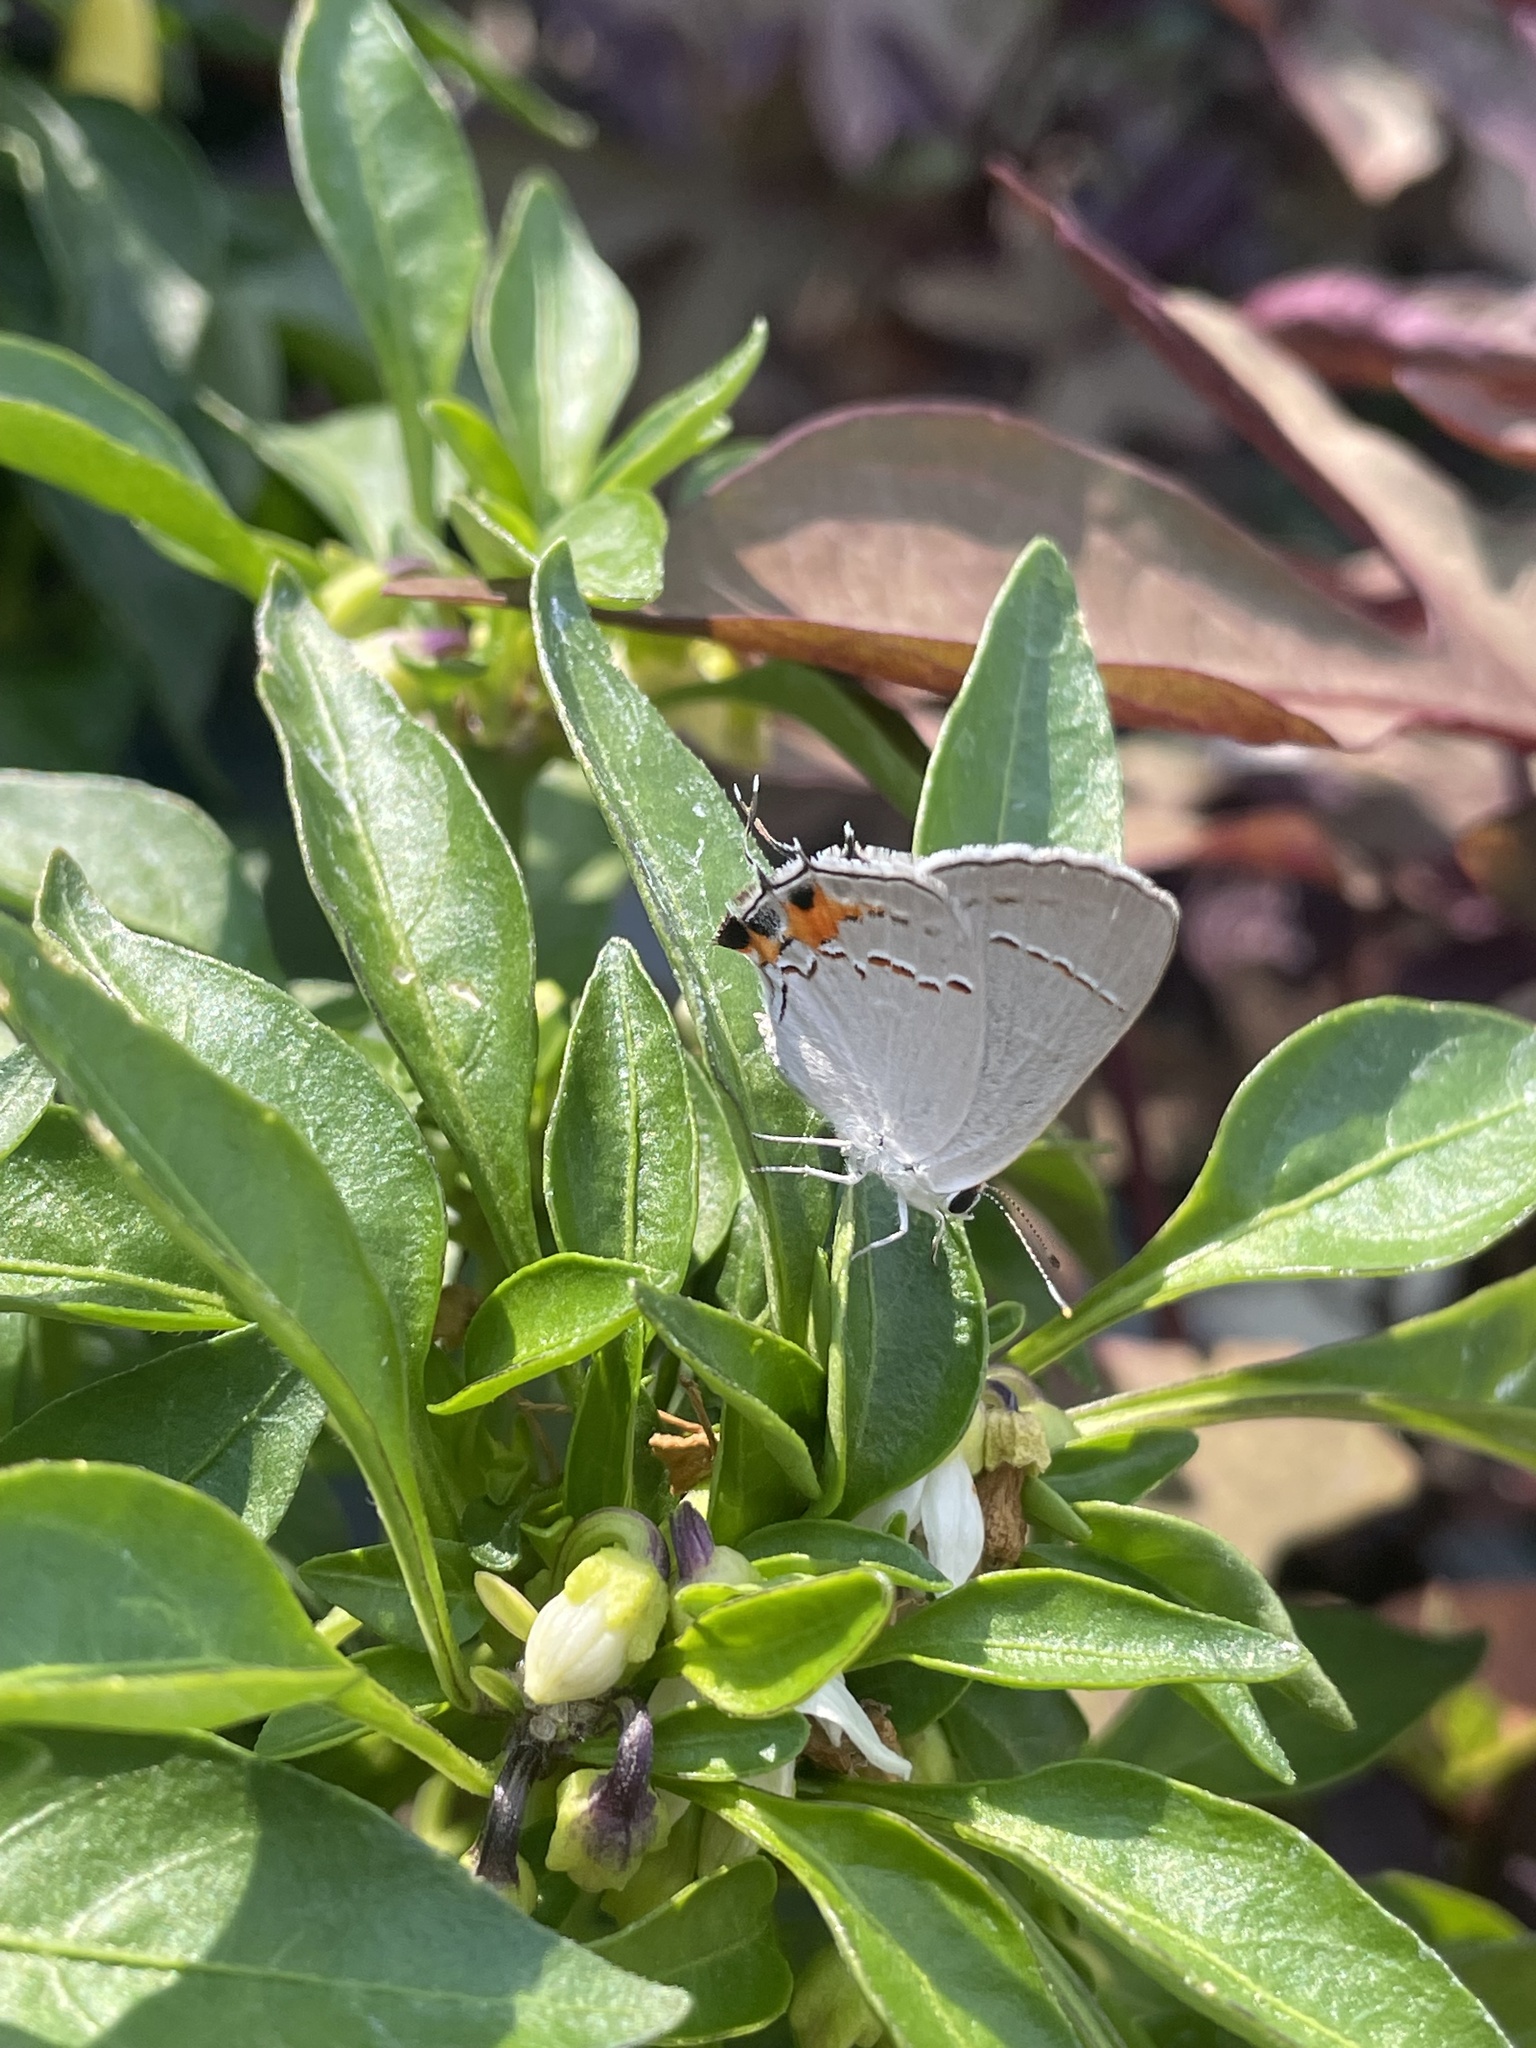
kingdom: Animalia
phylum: Arthropoda
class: Insecta
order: Lepidoptera
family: Lycaenidae
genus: Strymon
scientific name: Strymon melinus
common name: Gray hairstreak
